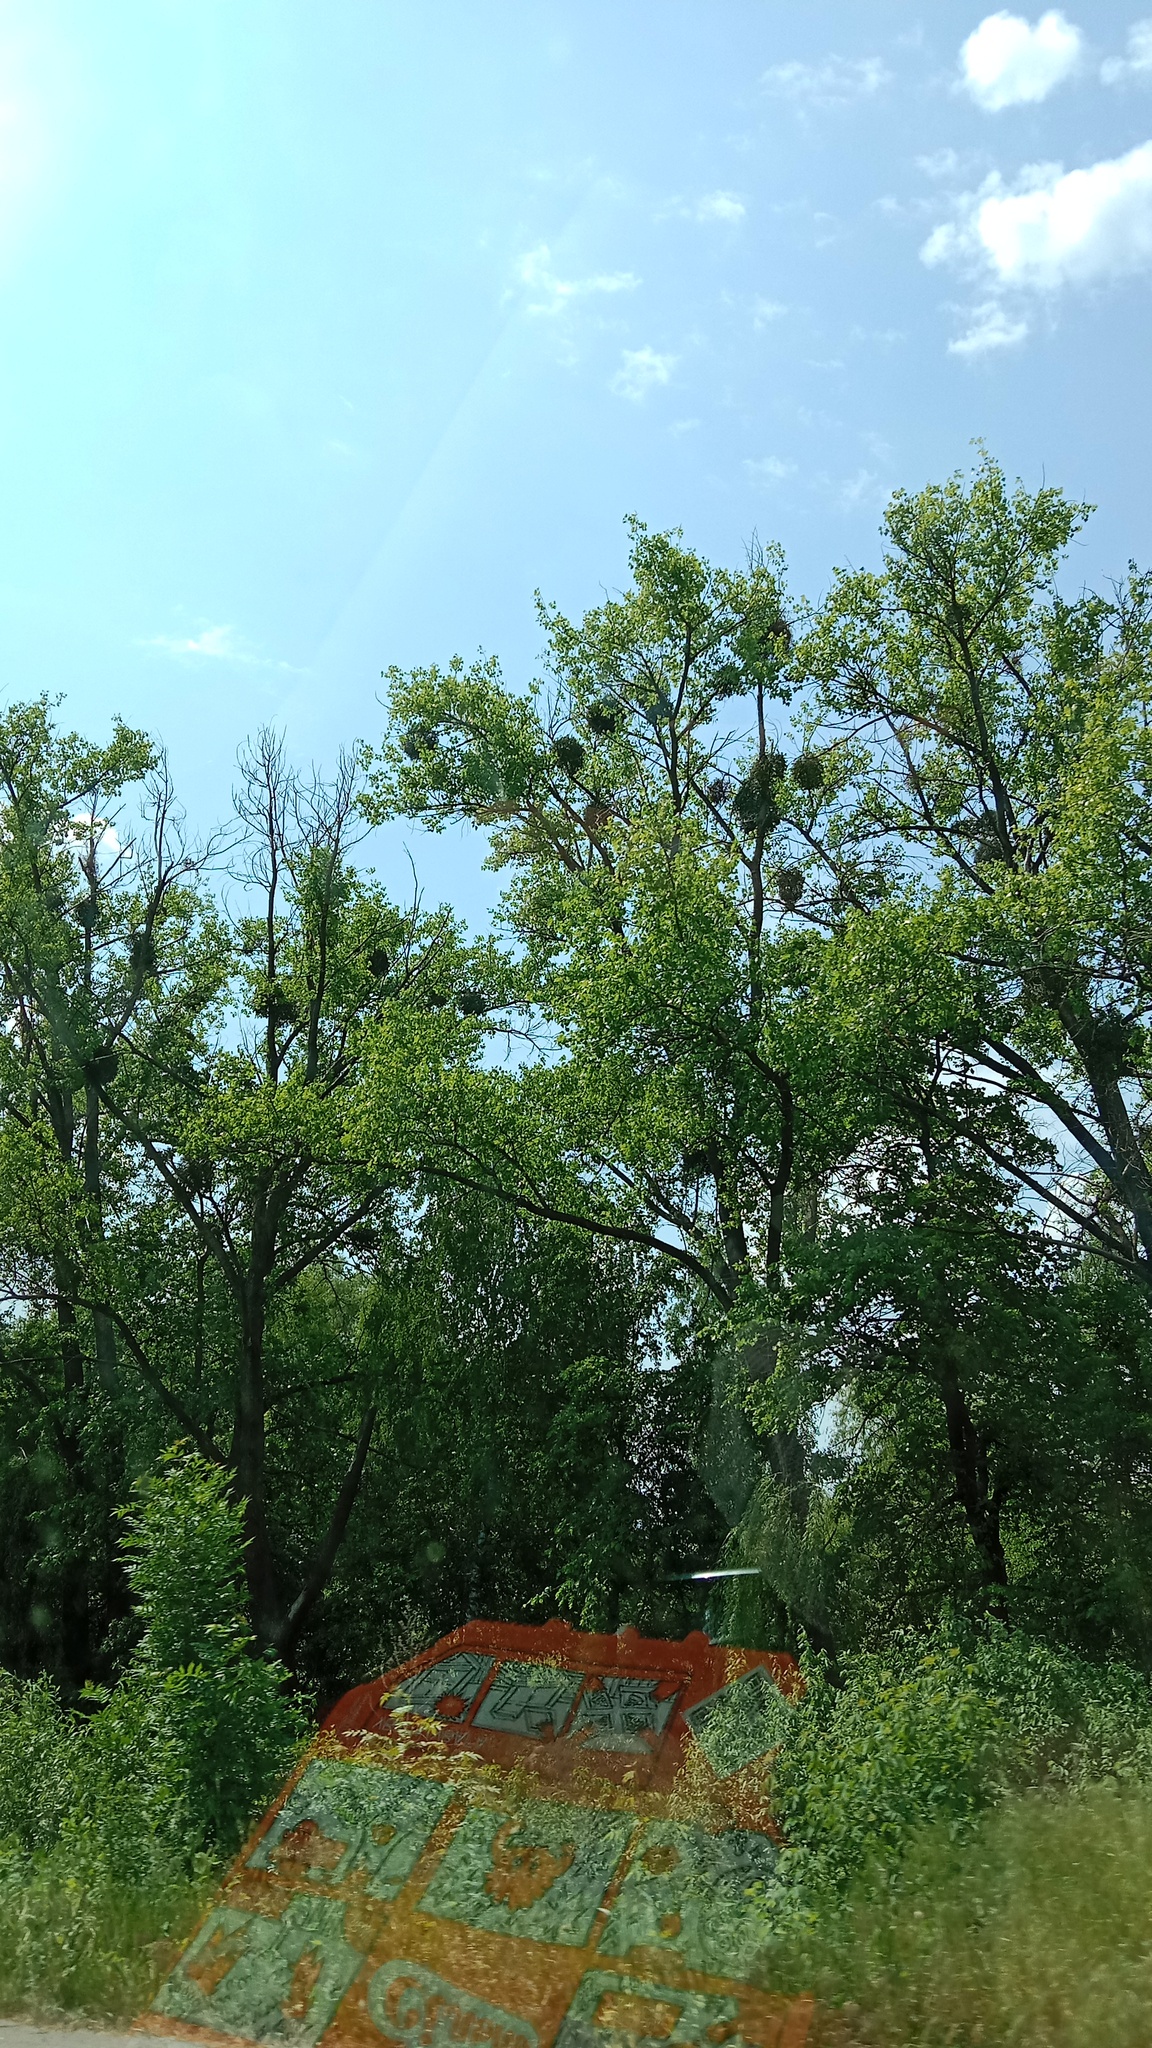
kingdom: Plantae
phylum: Tracheophyta
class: Magnoliopsida
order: Santalales
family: Viscaceae
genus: Viscum
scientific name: Viscum album
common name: Mistletoe
